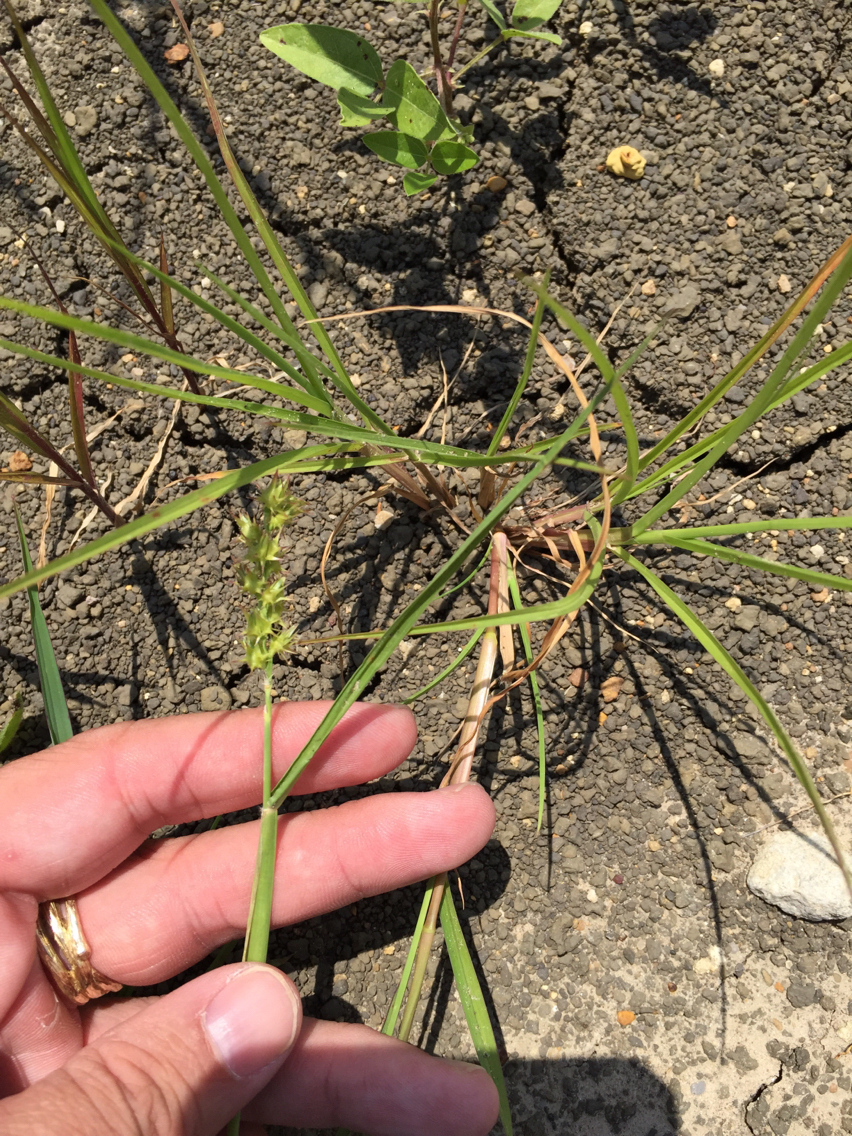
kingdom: Plantae
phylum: Tracheophyta
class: Liliopsida
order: Poales
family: Poaceae
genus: Cenchrus
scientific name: Cenchrus spinifex
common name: Coast sandbur
